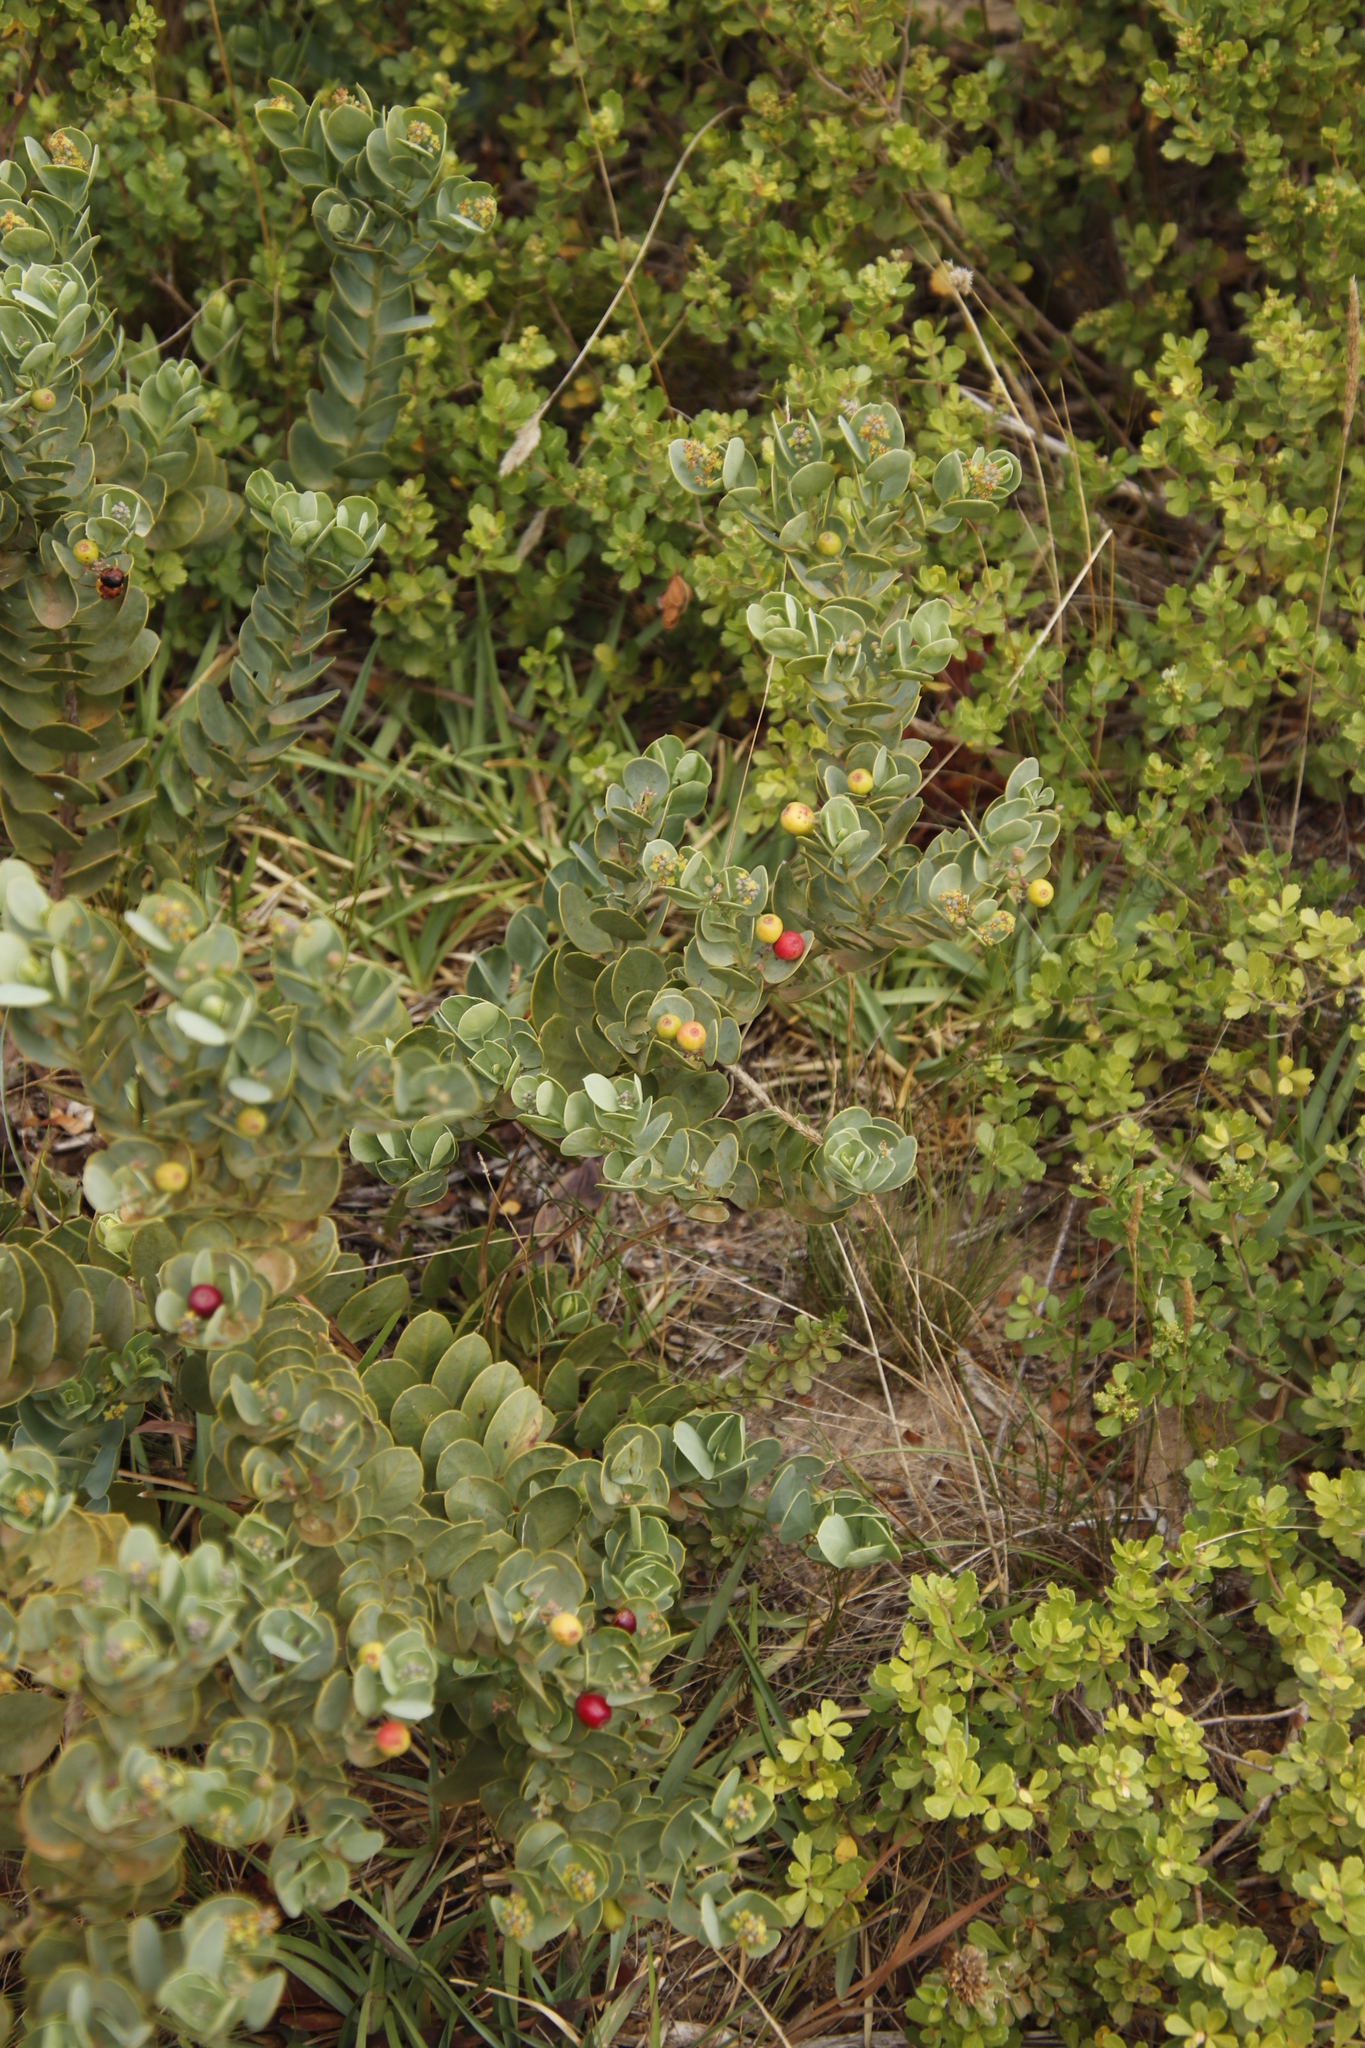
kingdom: Plantae
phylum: Tracheophyta
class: Magnoliopsida
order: Santalales
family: Santalaceae
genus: Osyris
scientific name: Osyris compressa
